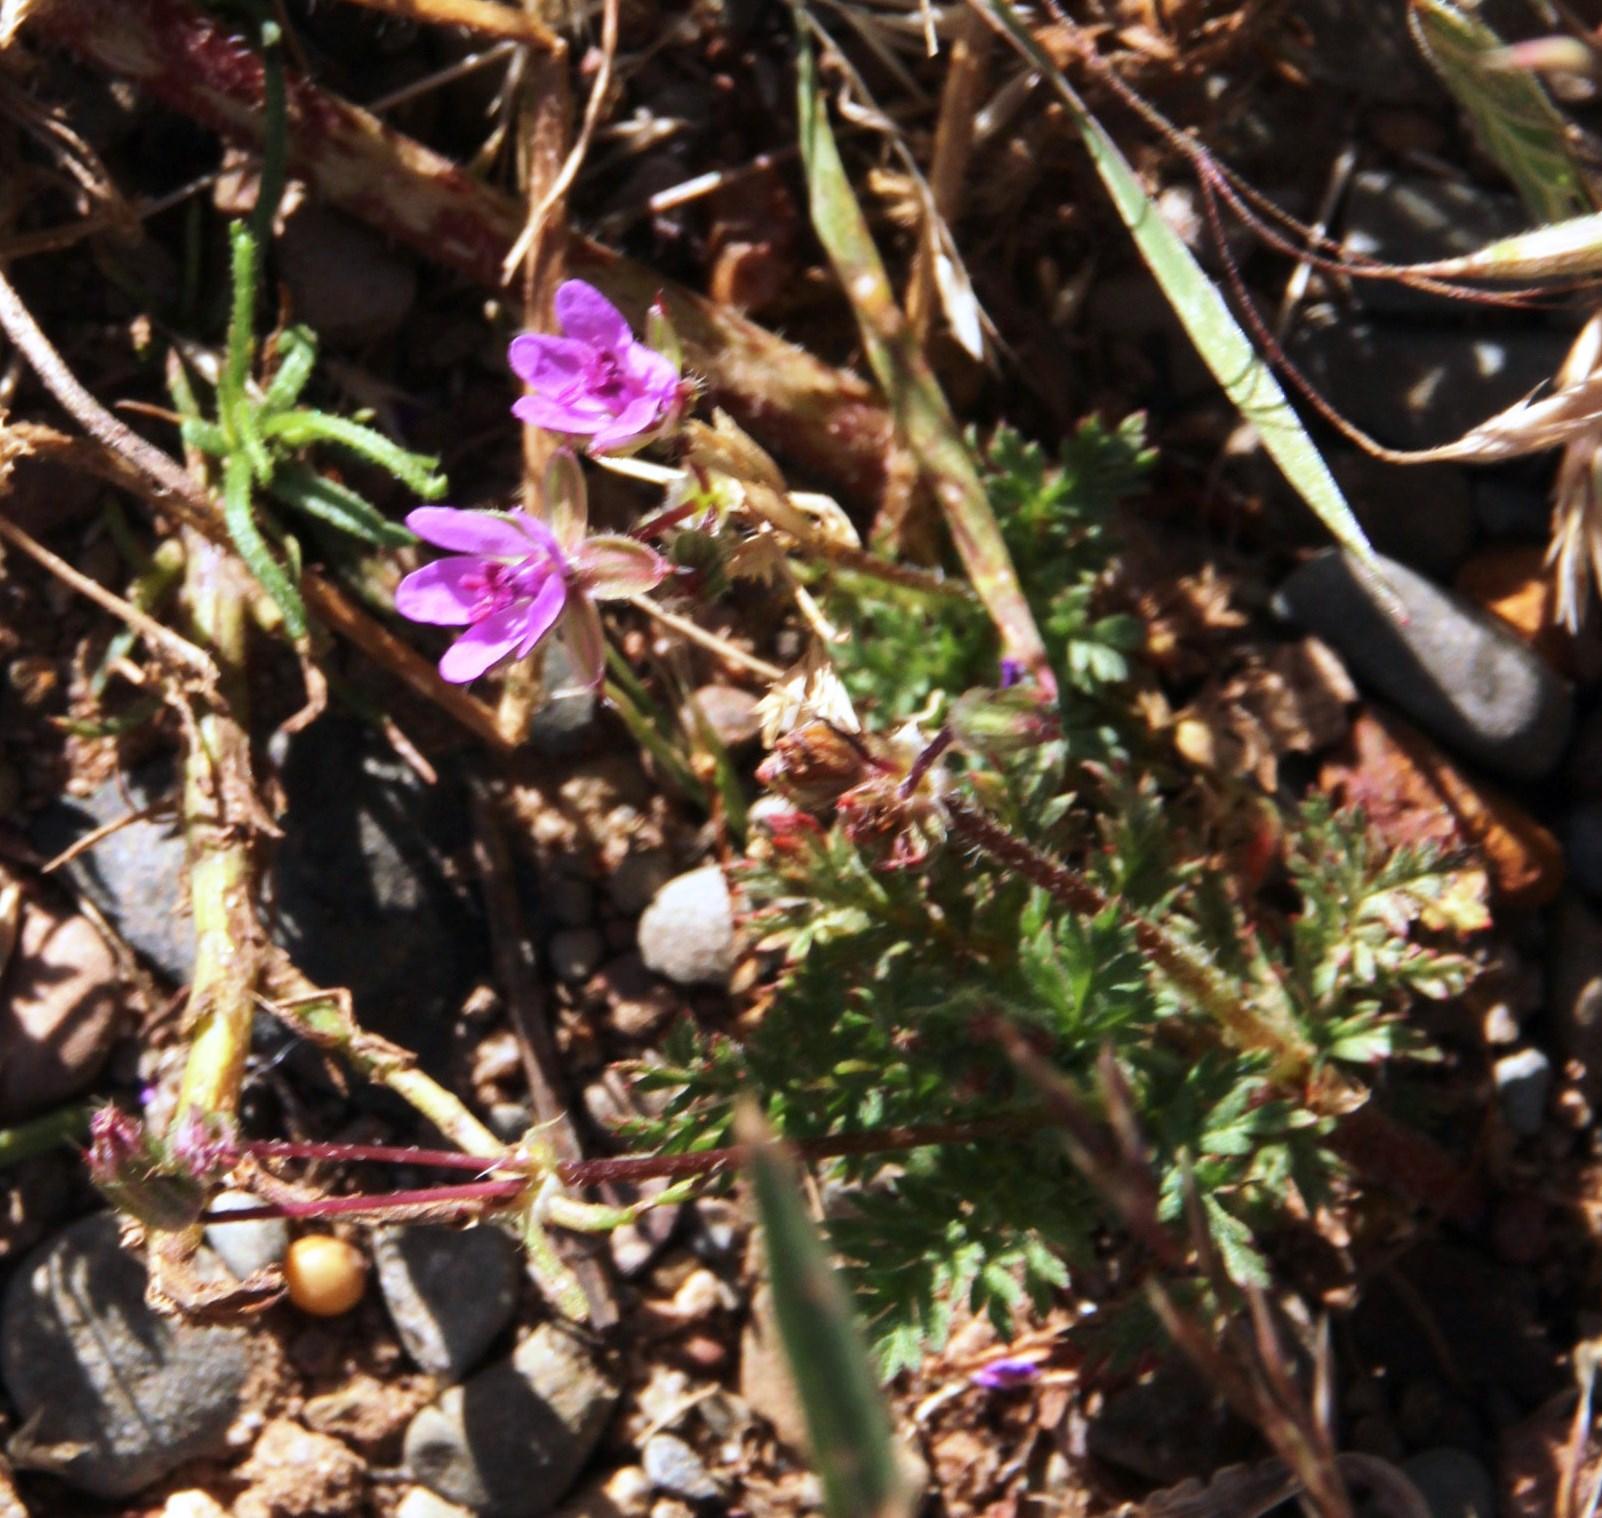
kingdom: Plantae
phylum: Tracheophyta
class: Magnoliopsida
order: Geraniales
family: Geraniaceae
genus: Erodium
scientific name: Erodium cicutarium
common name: Common stork's-bill
